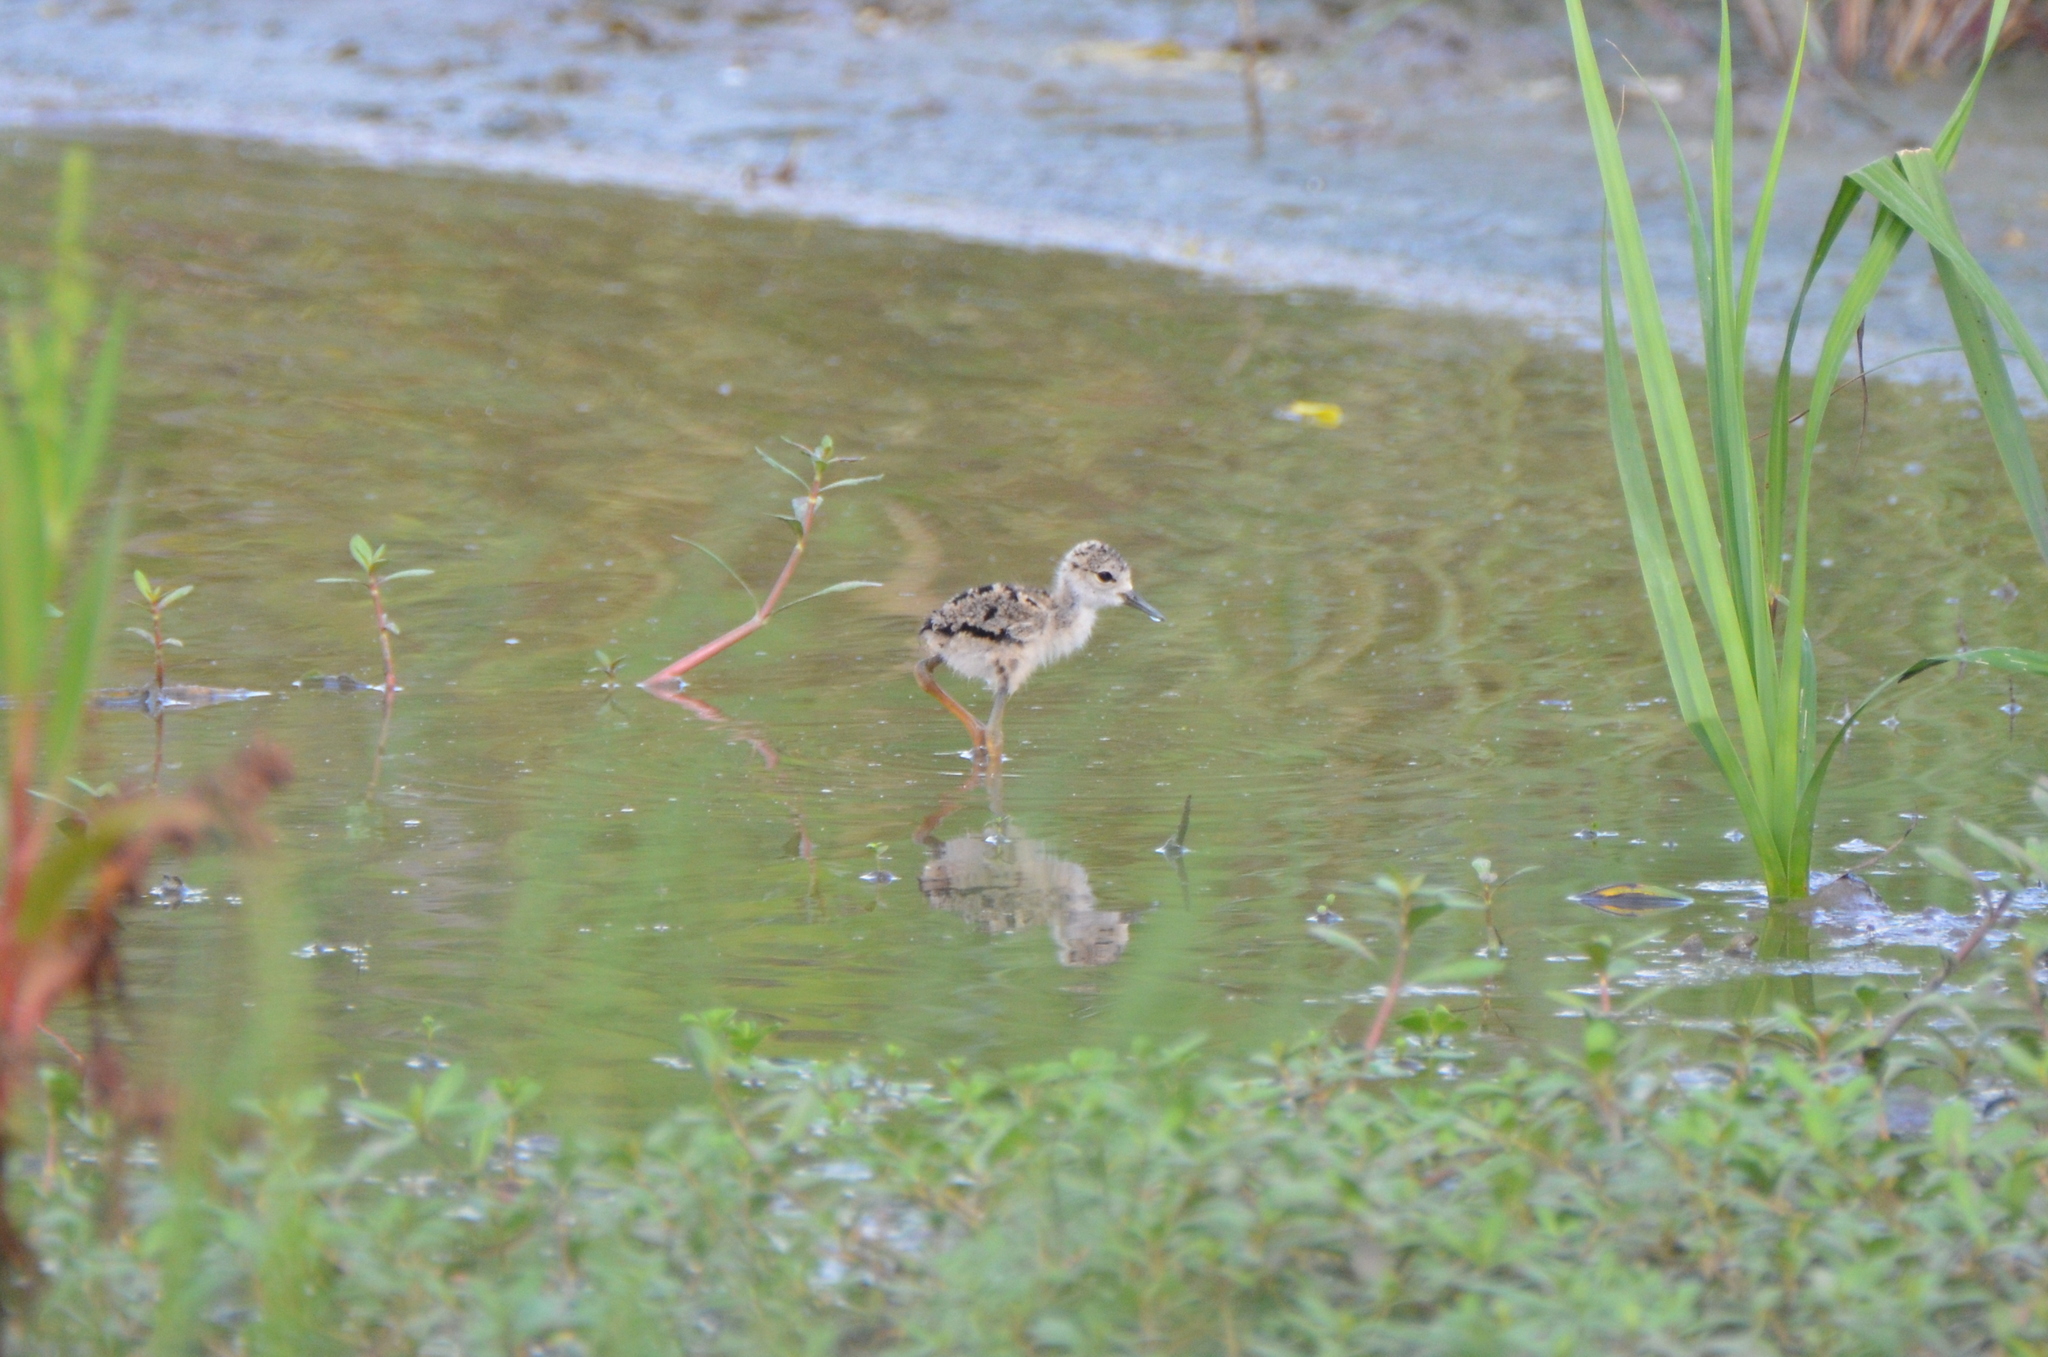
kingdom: Animalia
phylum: Chordata
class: Aves
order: Charadriiformes
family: Recurvirostridae
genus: Himantopus
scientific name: Himantopus mexicanus
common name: Black-necked stilt
